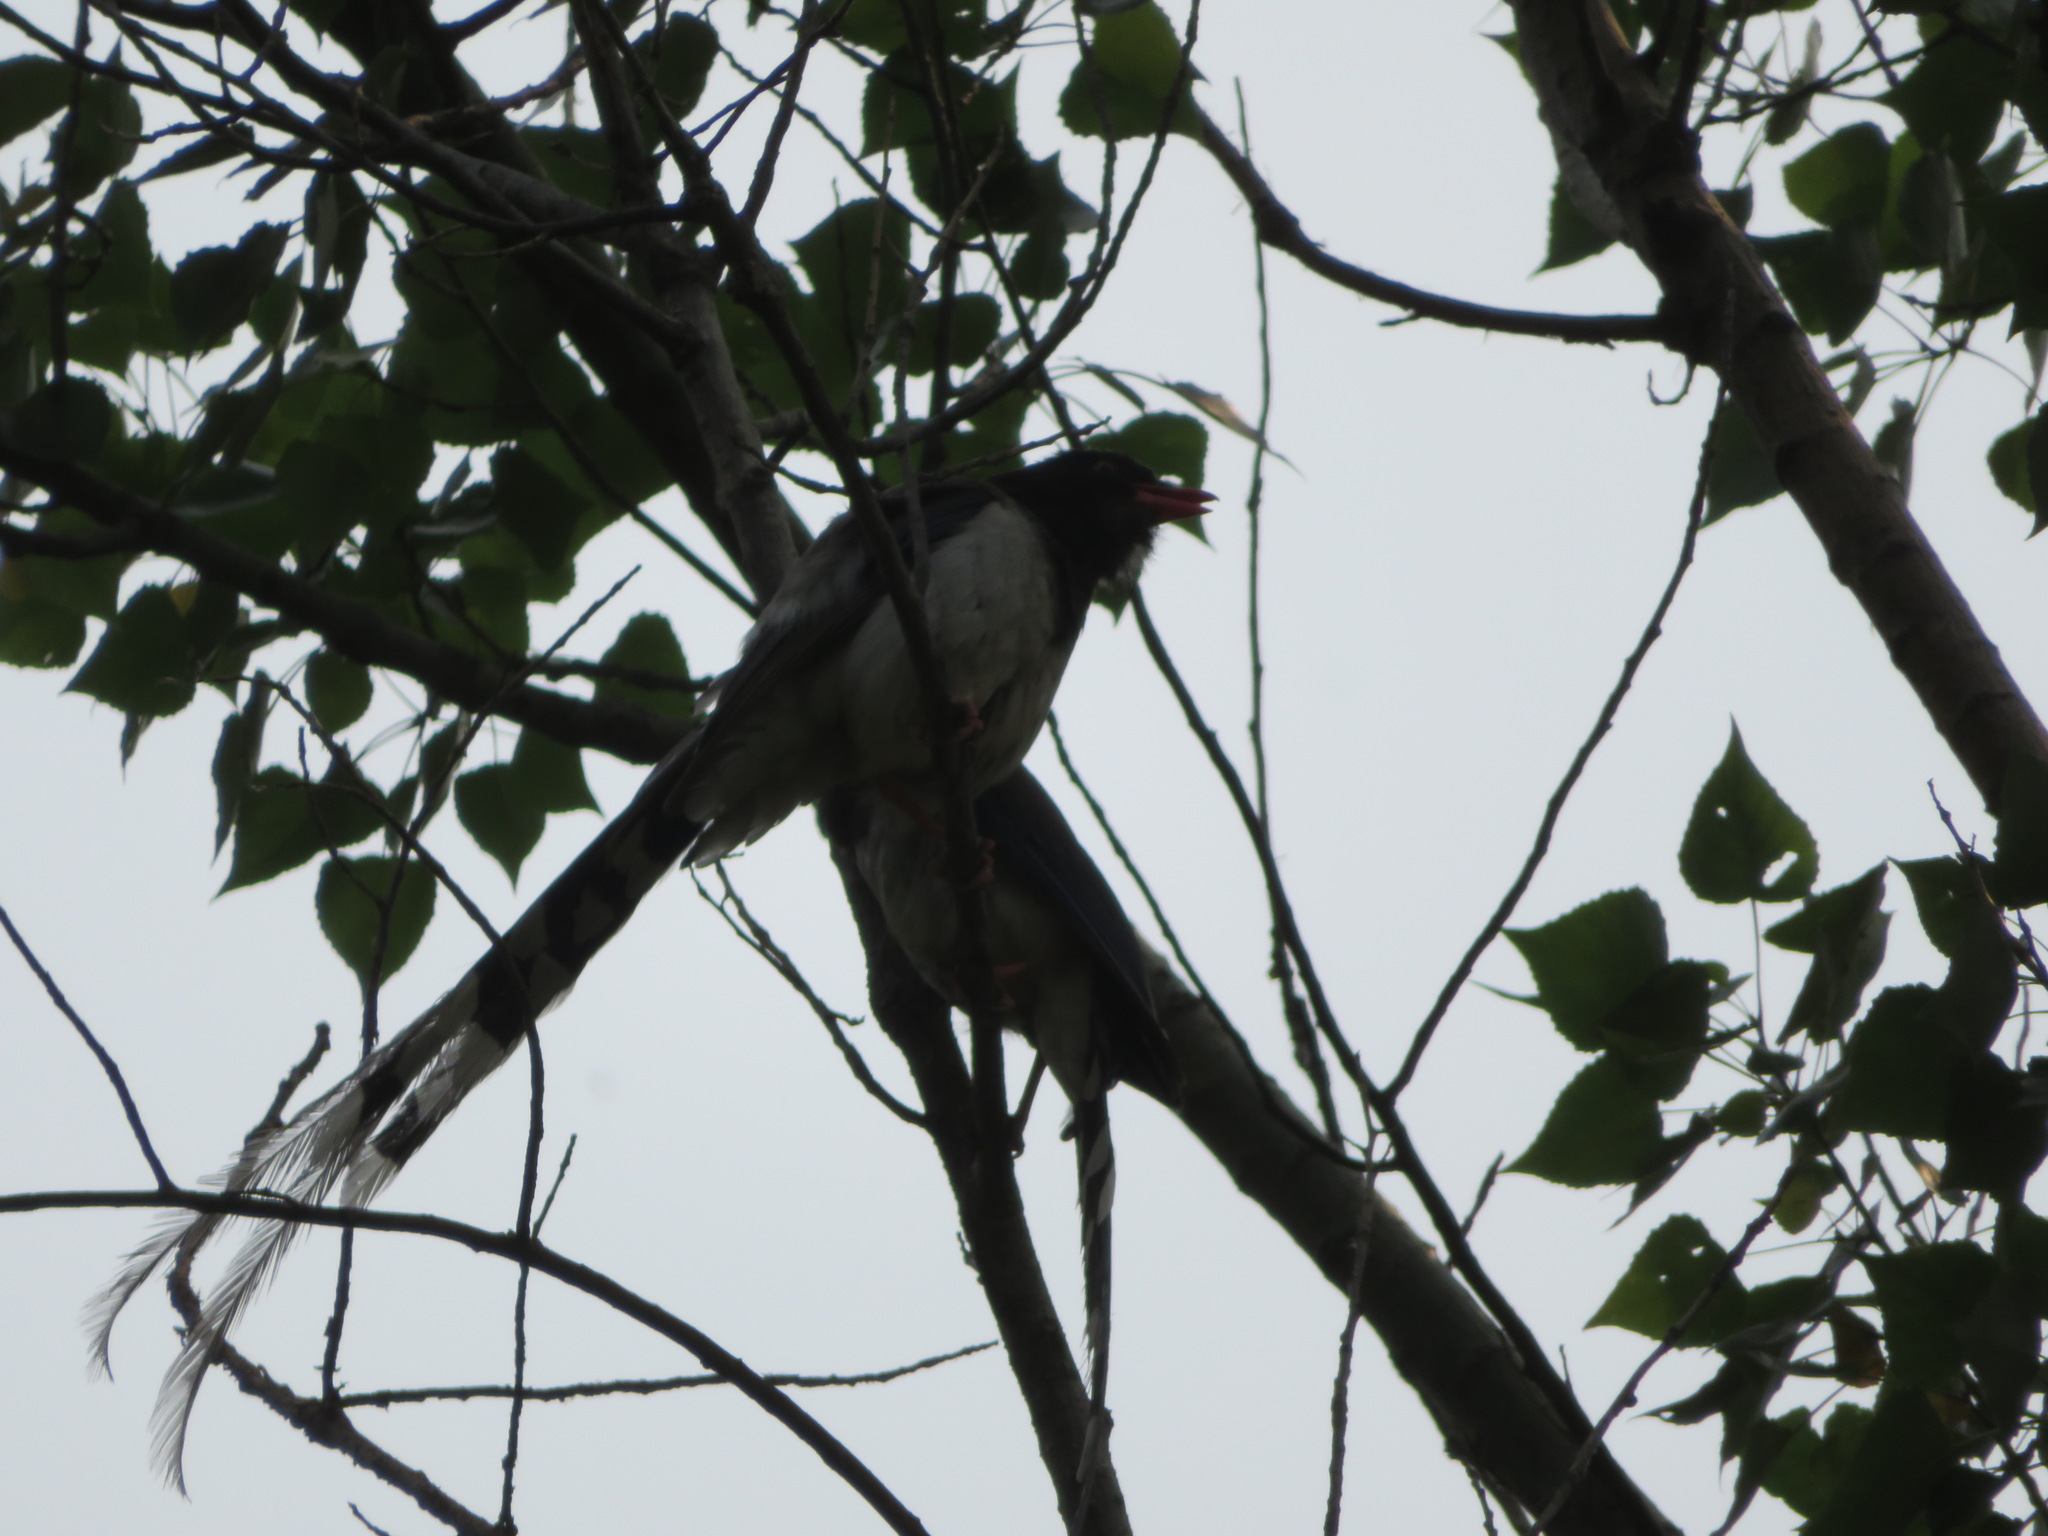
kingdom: Animalia
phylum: Chordata
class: Aves
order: Passeriformes
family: Corvidae
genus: Urocissa
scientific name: Urocissa erythroryncha
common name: Red-billed blue magpie
